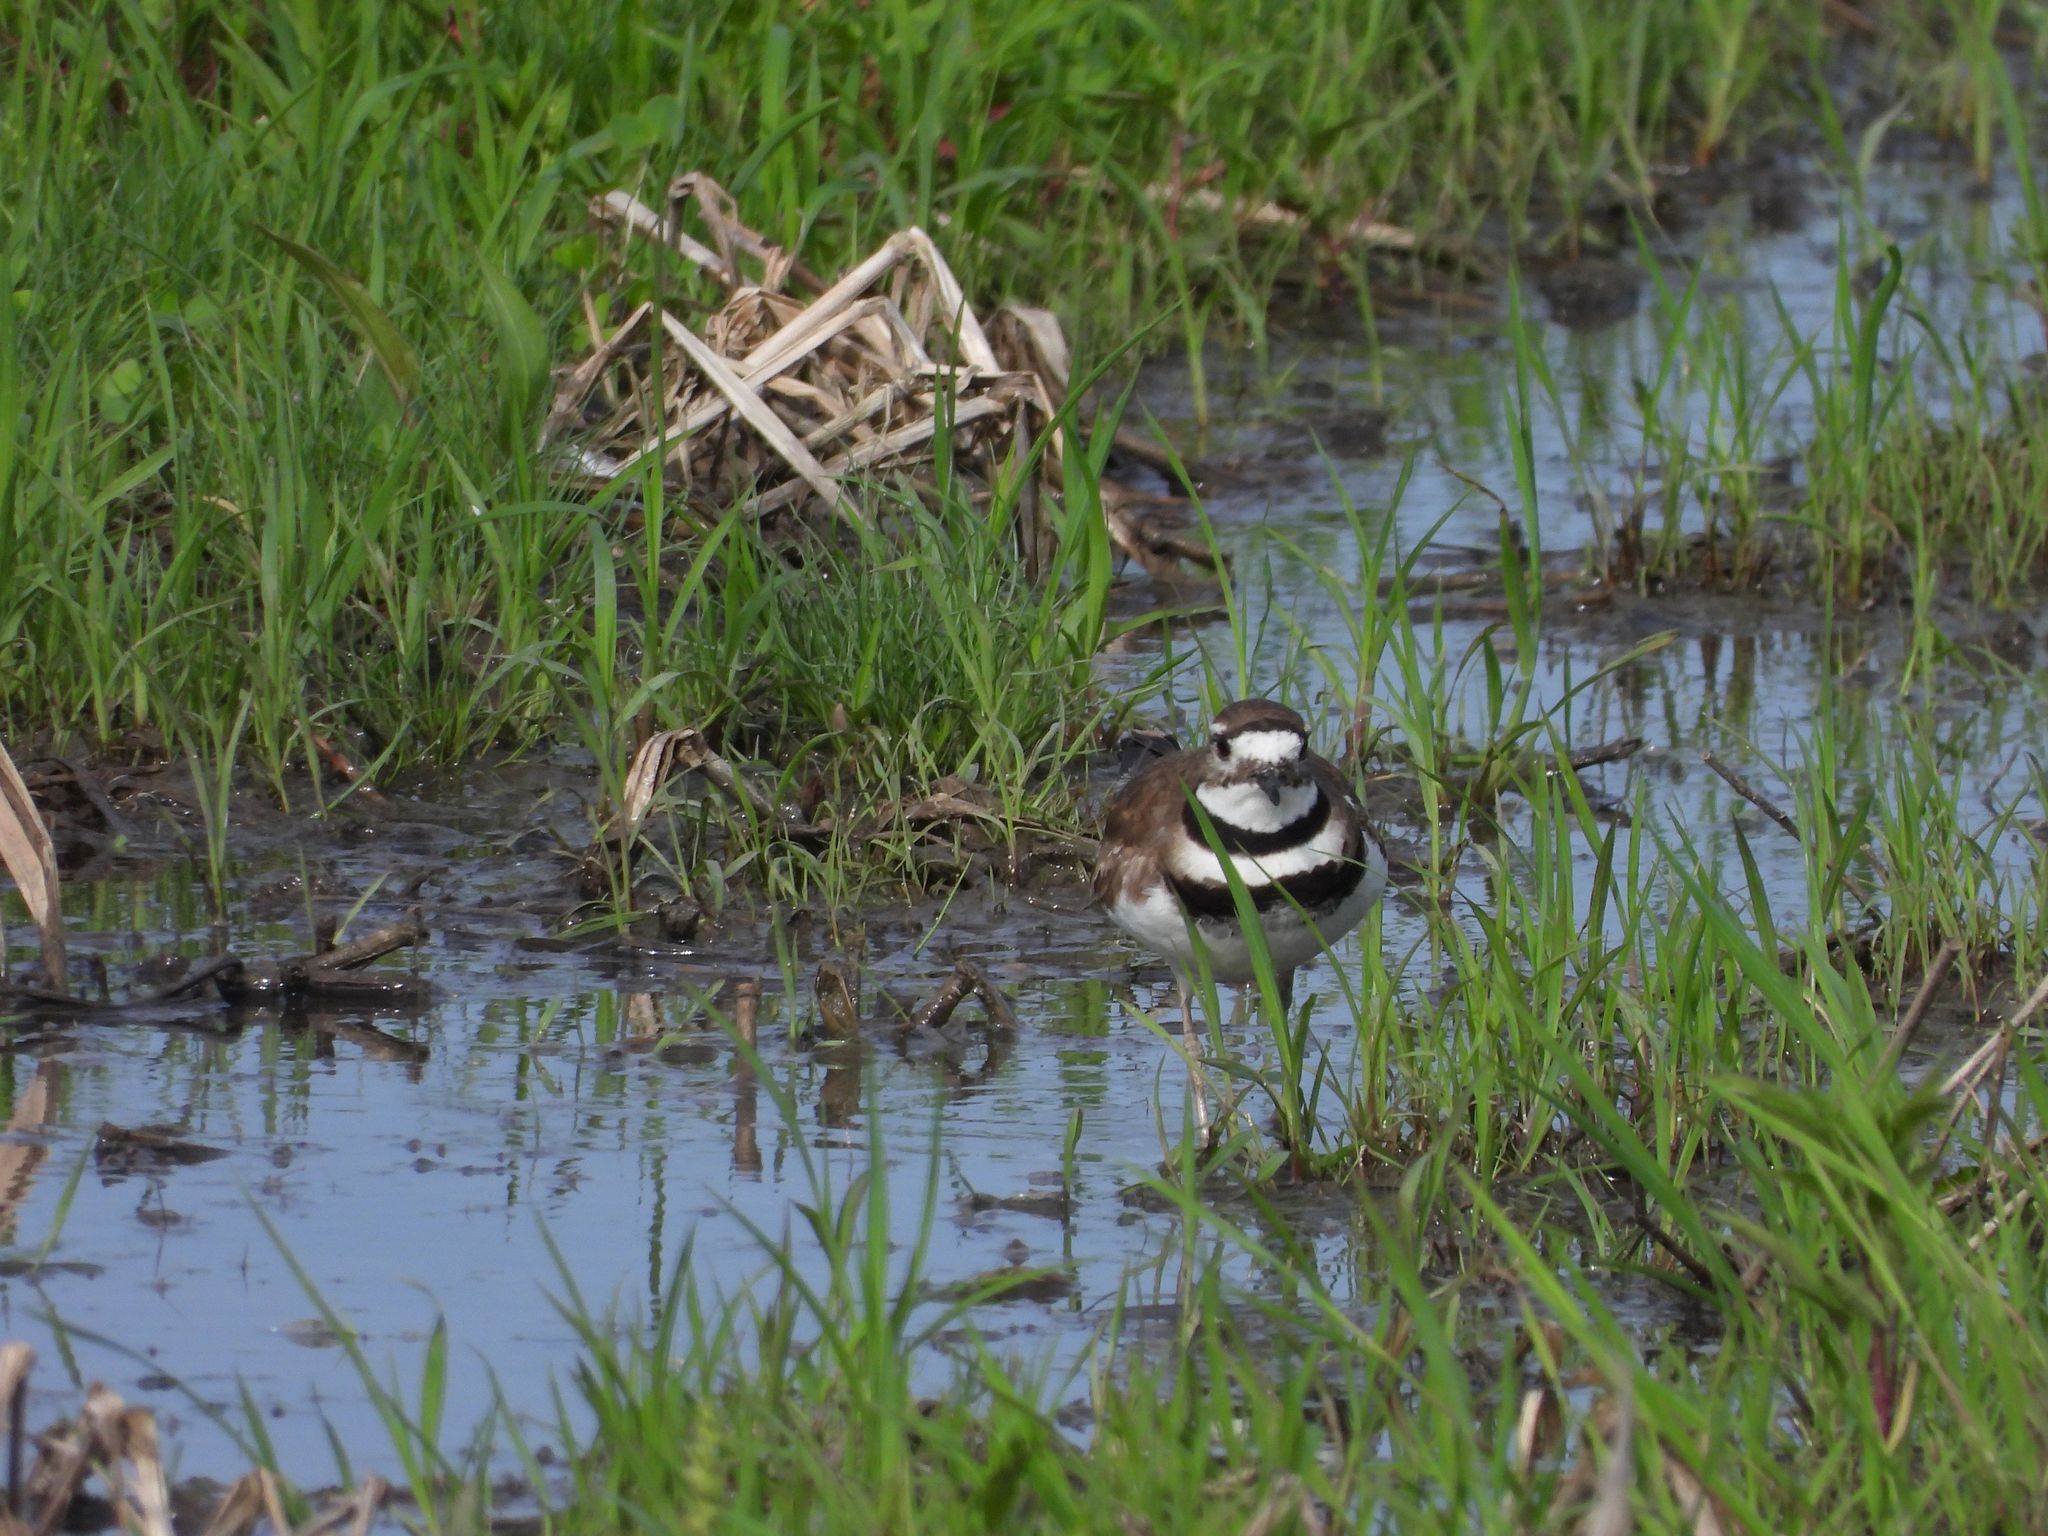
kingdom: Animalia
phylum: Chordata
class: Aves
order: Charadriiformes
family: Charadriidae
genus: Charadrius
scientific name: Charadrius vociferus
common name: Killdeer
